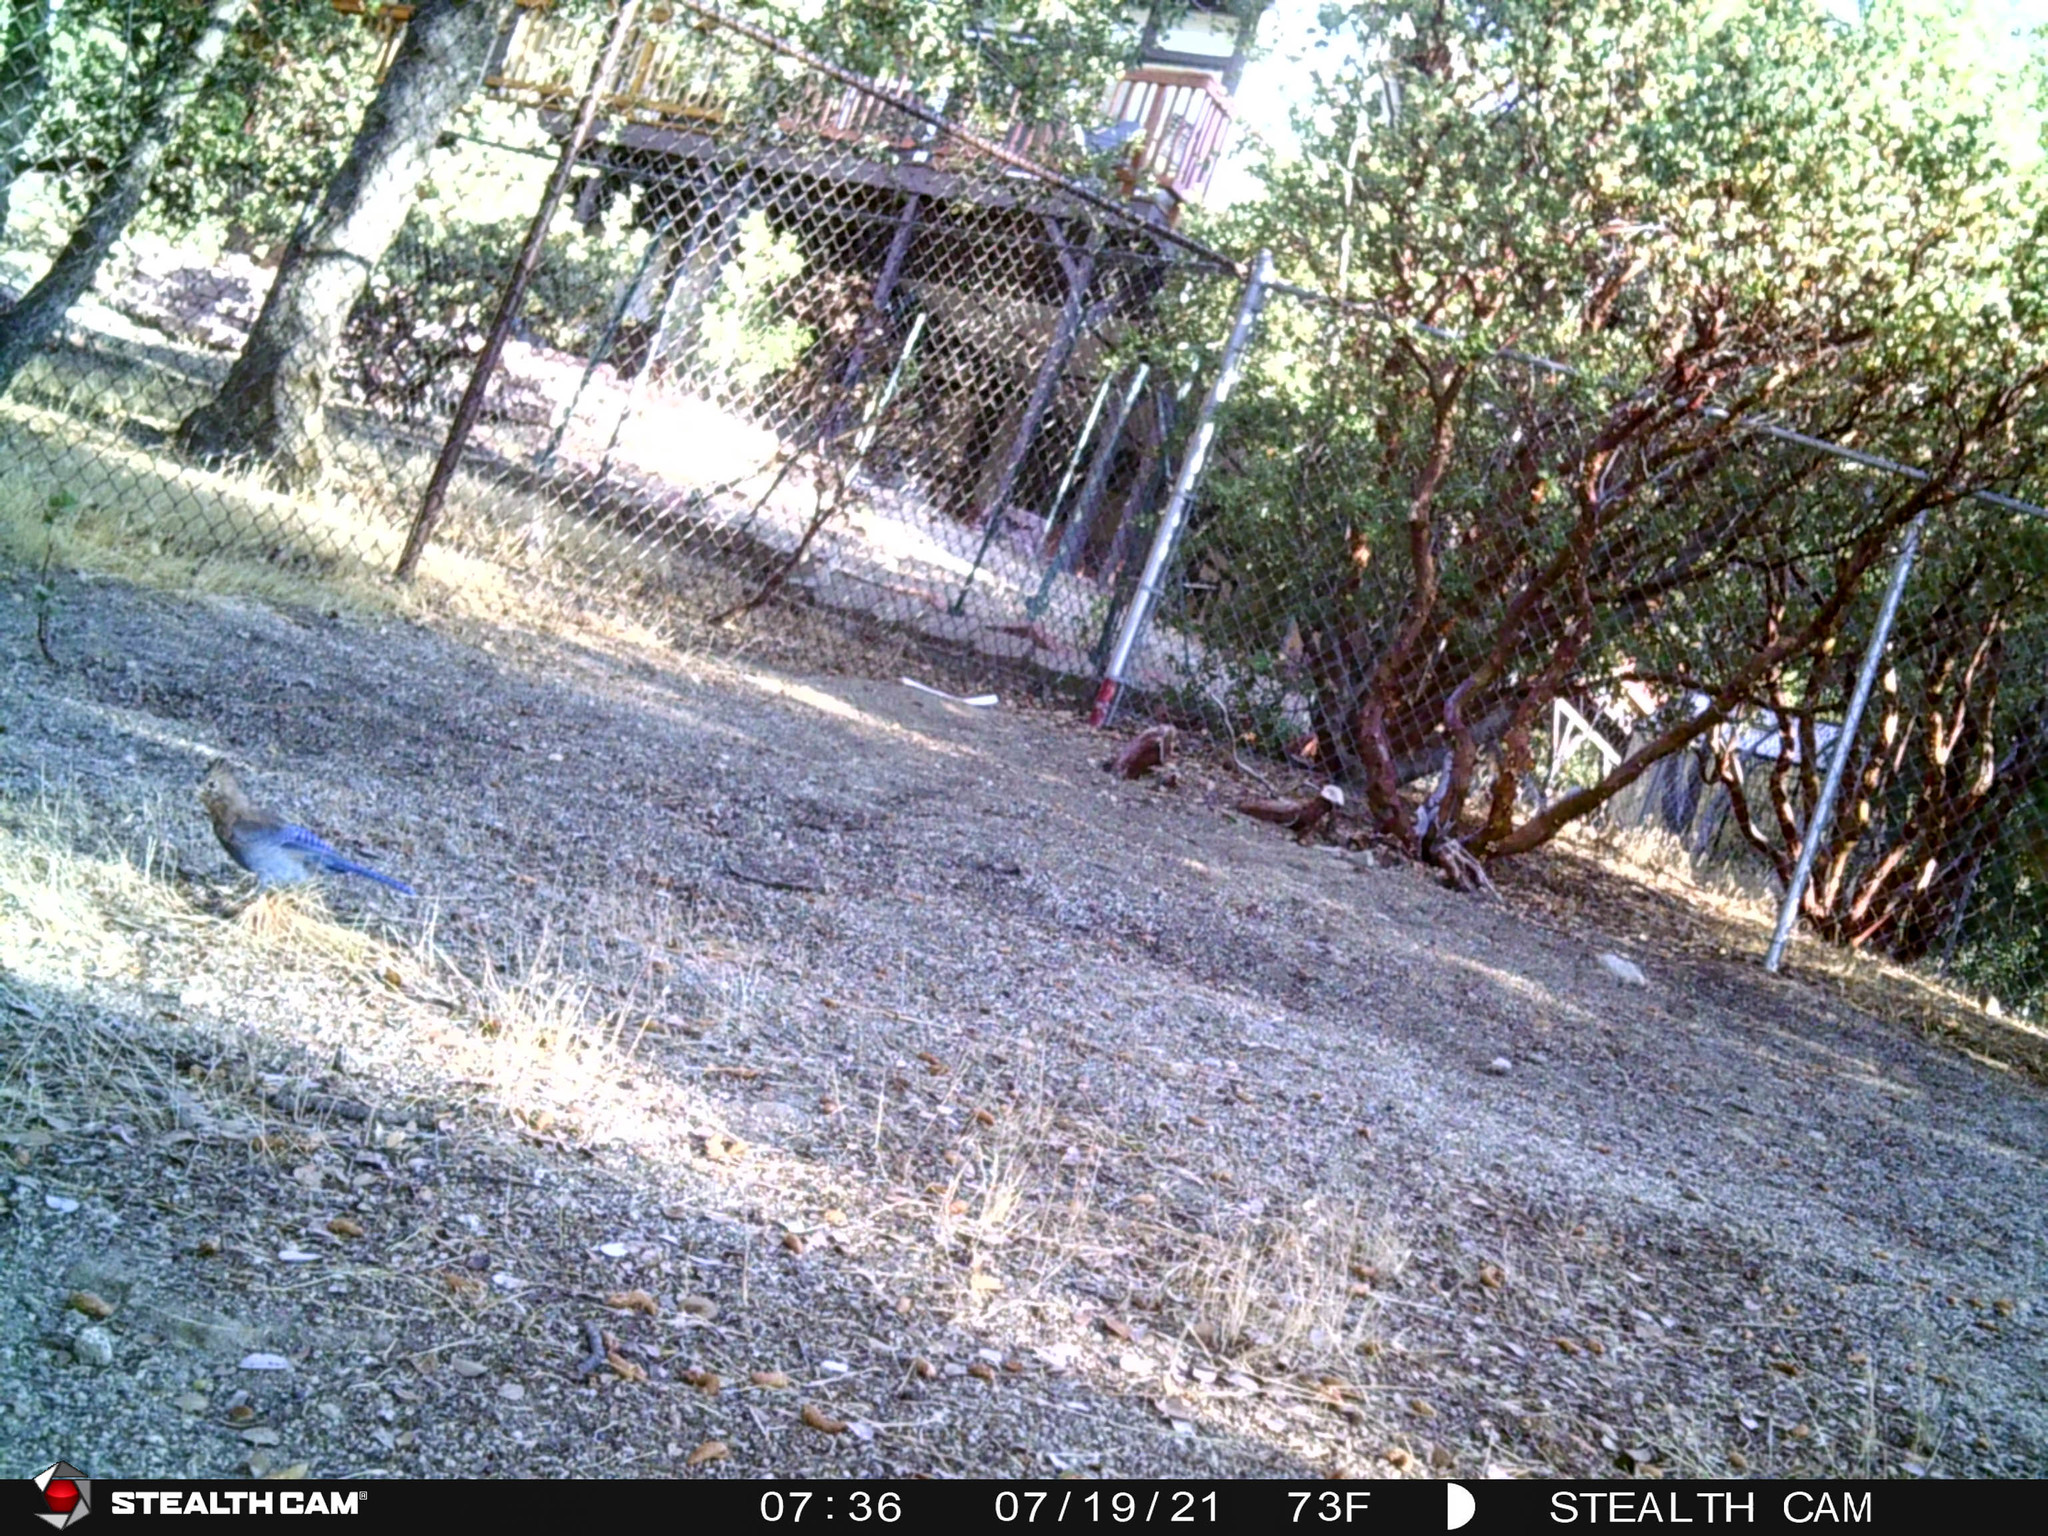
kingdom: Animalia
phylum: Chordata
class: Aves
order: Passeriformes
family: Corvidae
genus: Cyanocitta
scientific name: Cyanocitta stelleri
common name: Steller's jay
